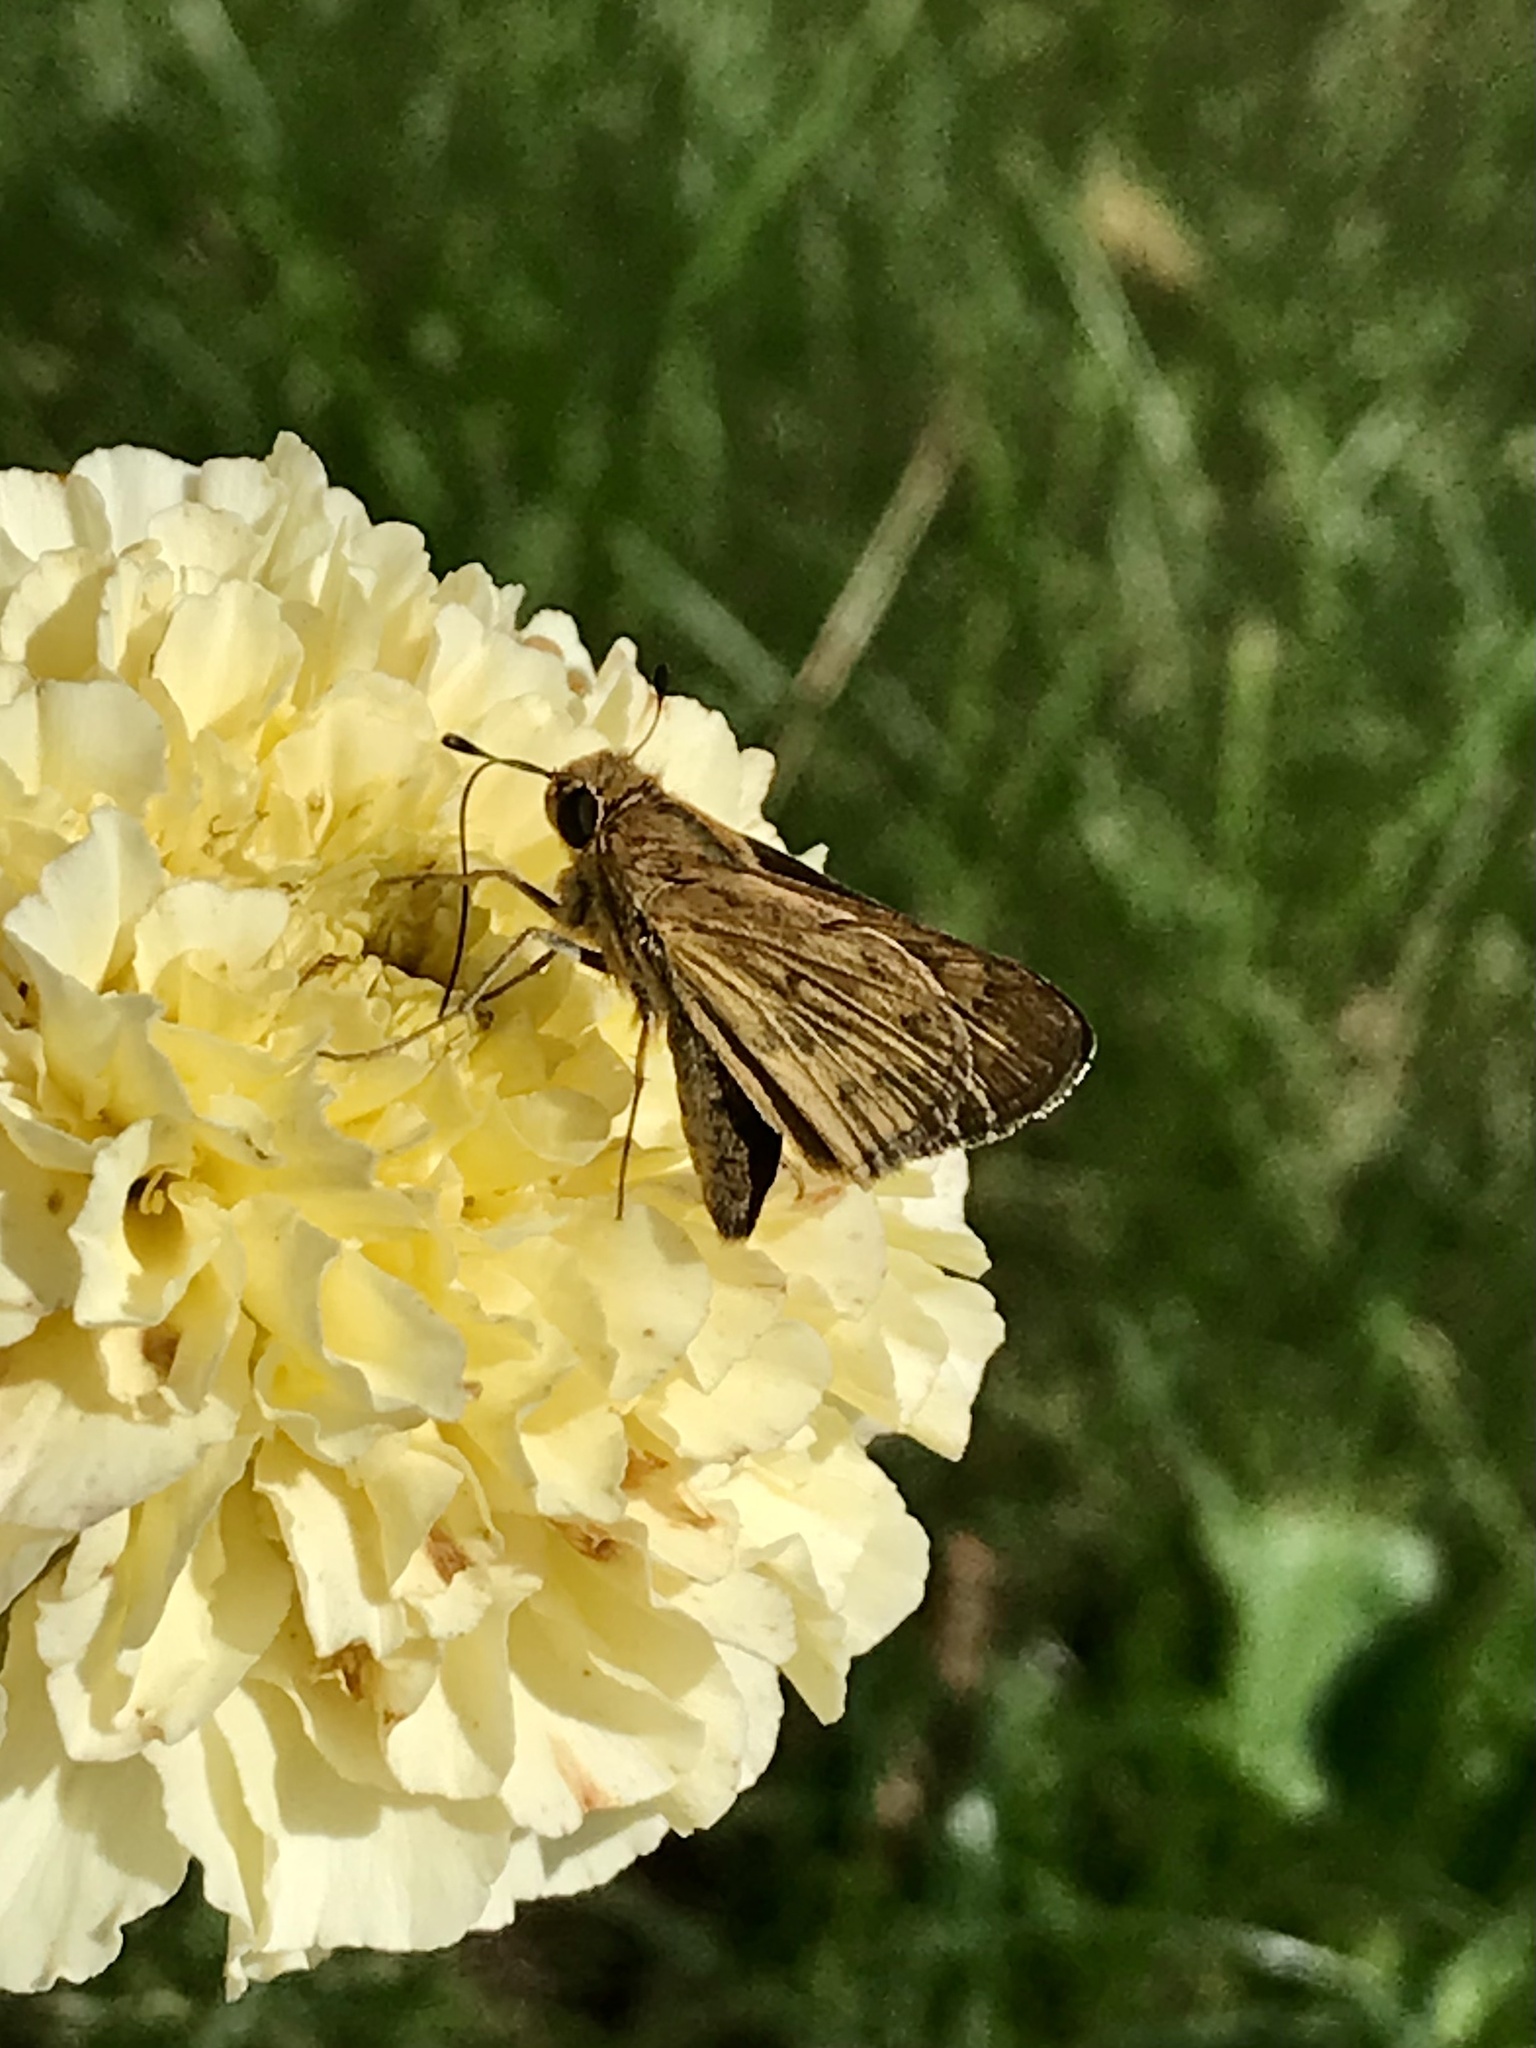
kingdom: Animalia
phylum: Arthropoda
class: Insecta
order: Lepidoptera
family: Hesperiidae
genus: Hylephila
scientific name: Hylephila phyleus
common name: Fiery skipper
